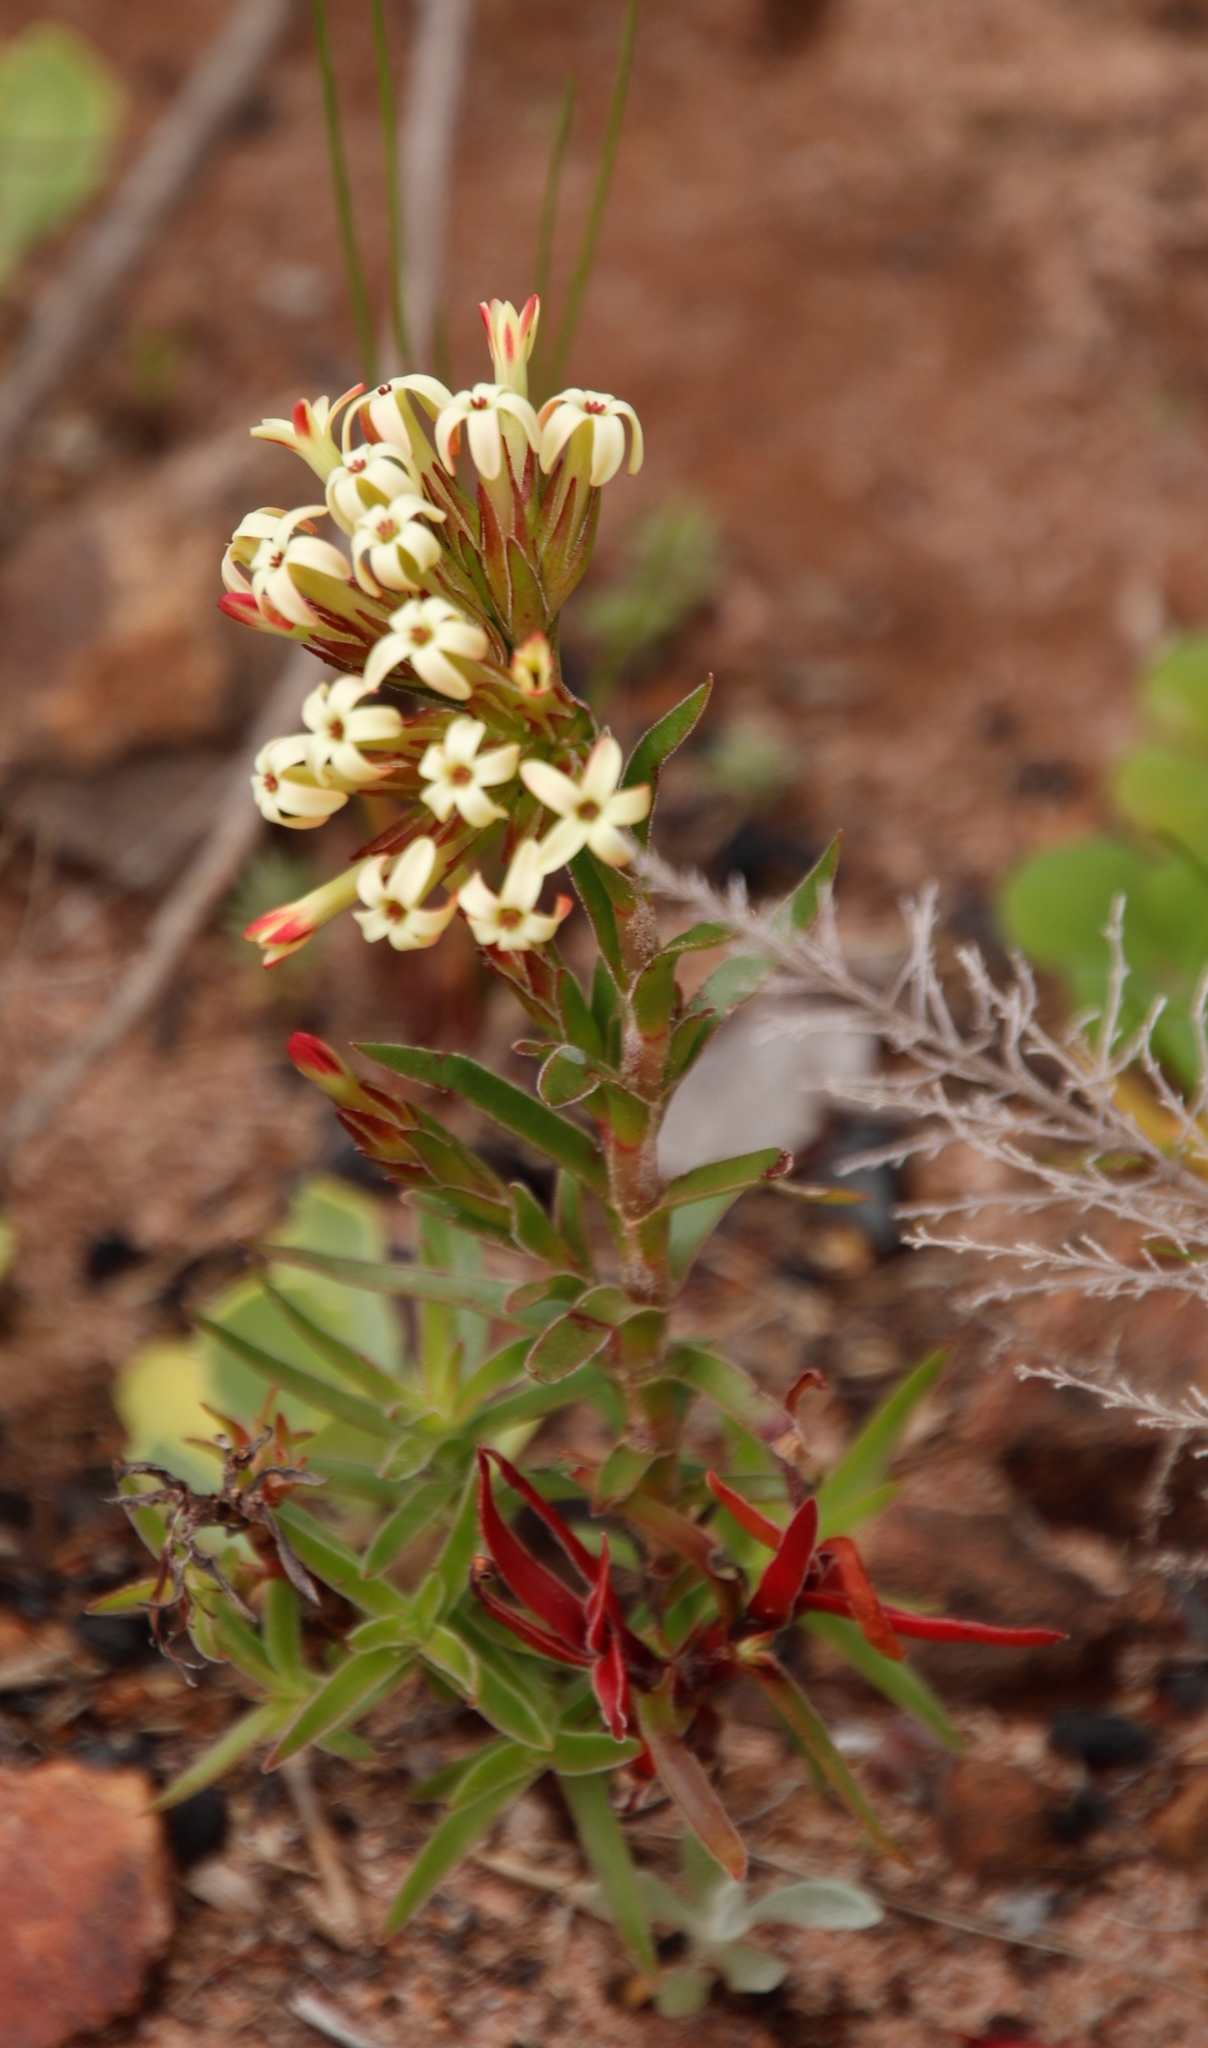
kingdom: Plantae
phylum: Tracheophyta
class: Magnoliopsida
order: Saxifragales
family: Crassulaceae
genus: Crassula
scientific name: Crassula fascicularis
